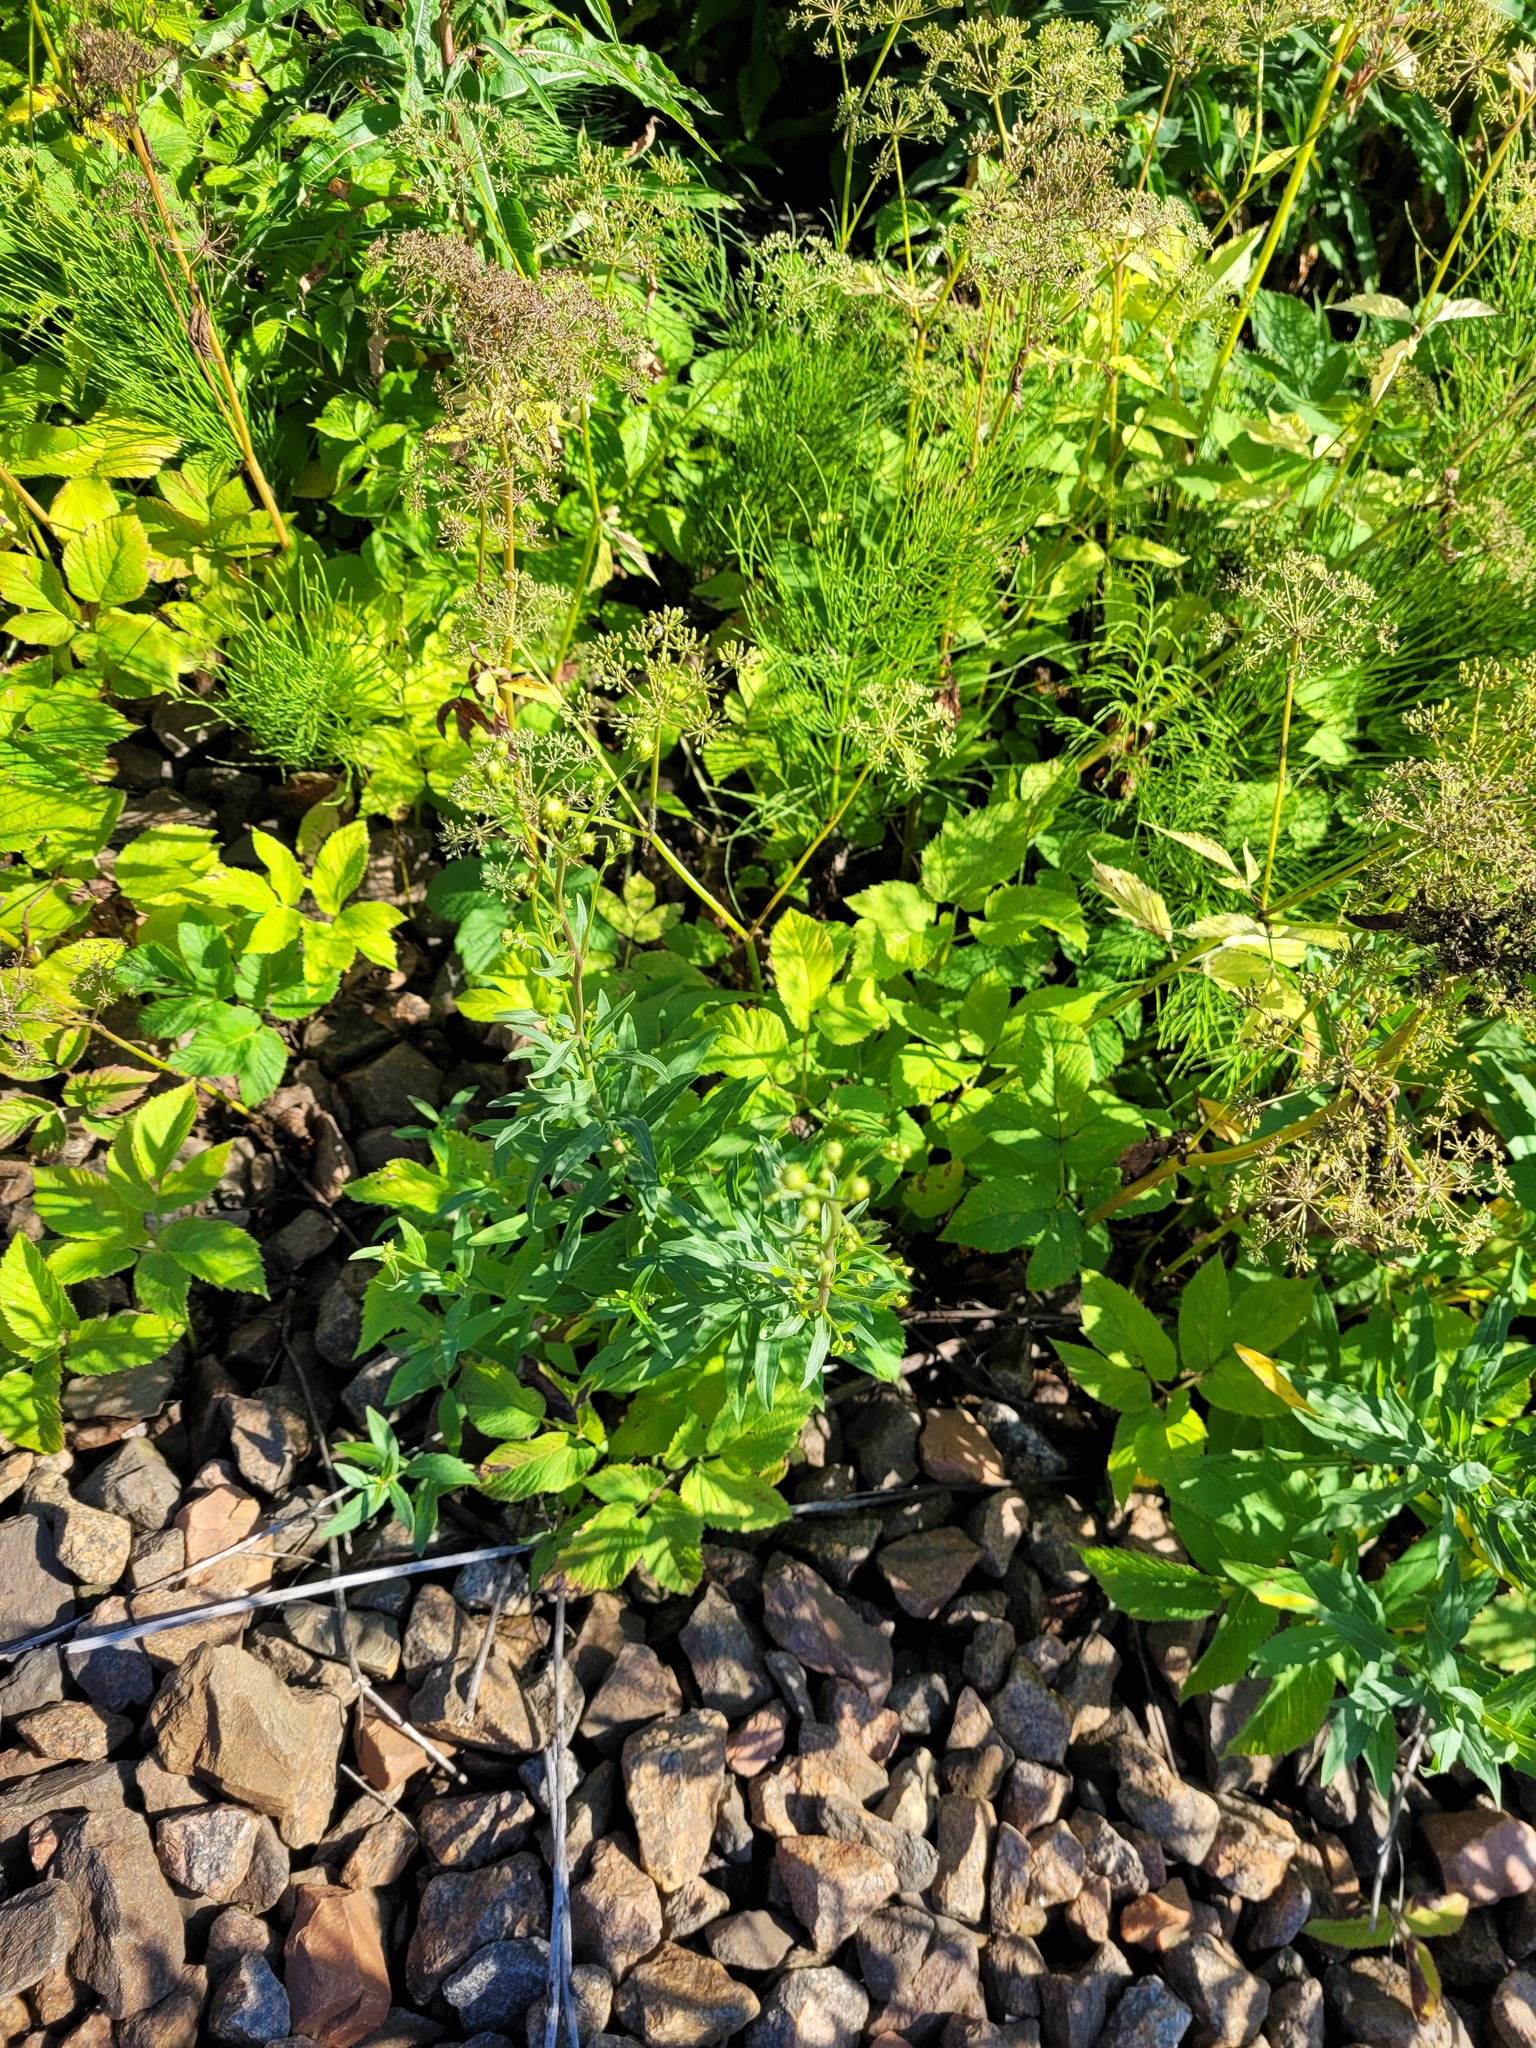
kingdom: Plantae
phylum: Tracheophyta
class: Magnoliopsida
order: Asterales
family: Asteraceae
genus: Hieracium
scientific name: Hieracium umbellatum
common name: Northern hawkweed
